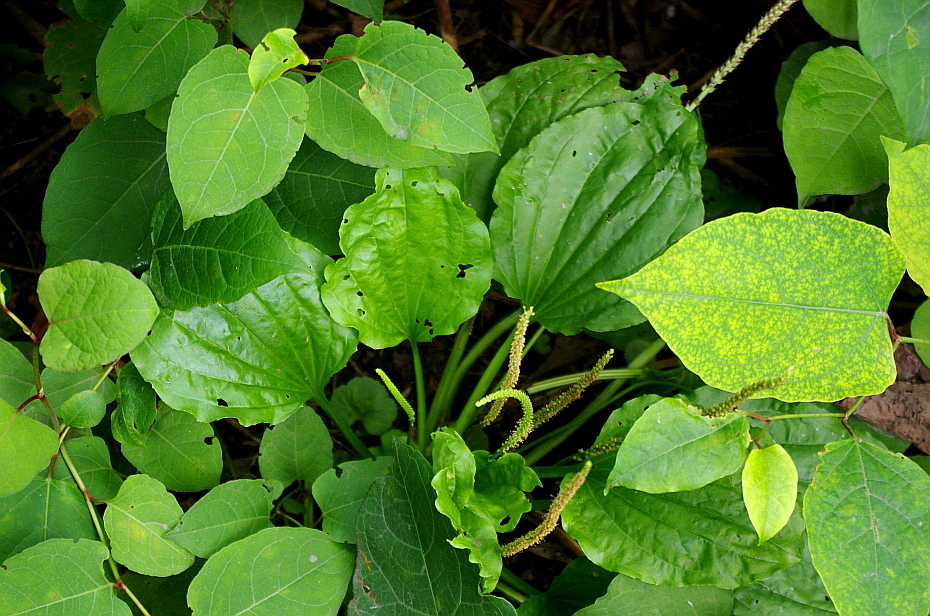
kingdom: Plantae
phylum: Tracheophyta
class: Magnoliopsida
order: Caryophyllales
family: Polygonaceae
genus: Reynoutria
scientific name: Reynoutria bohemica
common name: Bohemian knotweed
